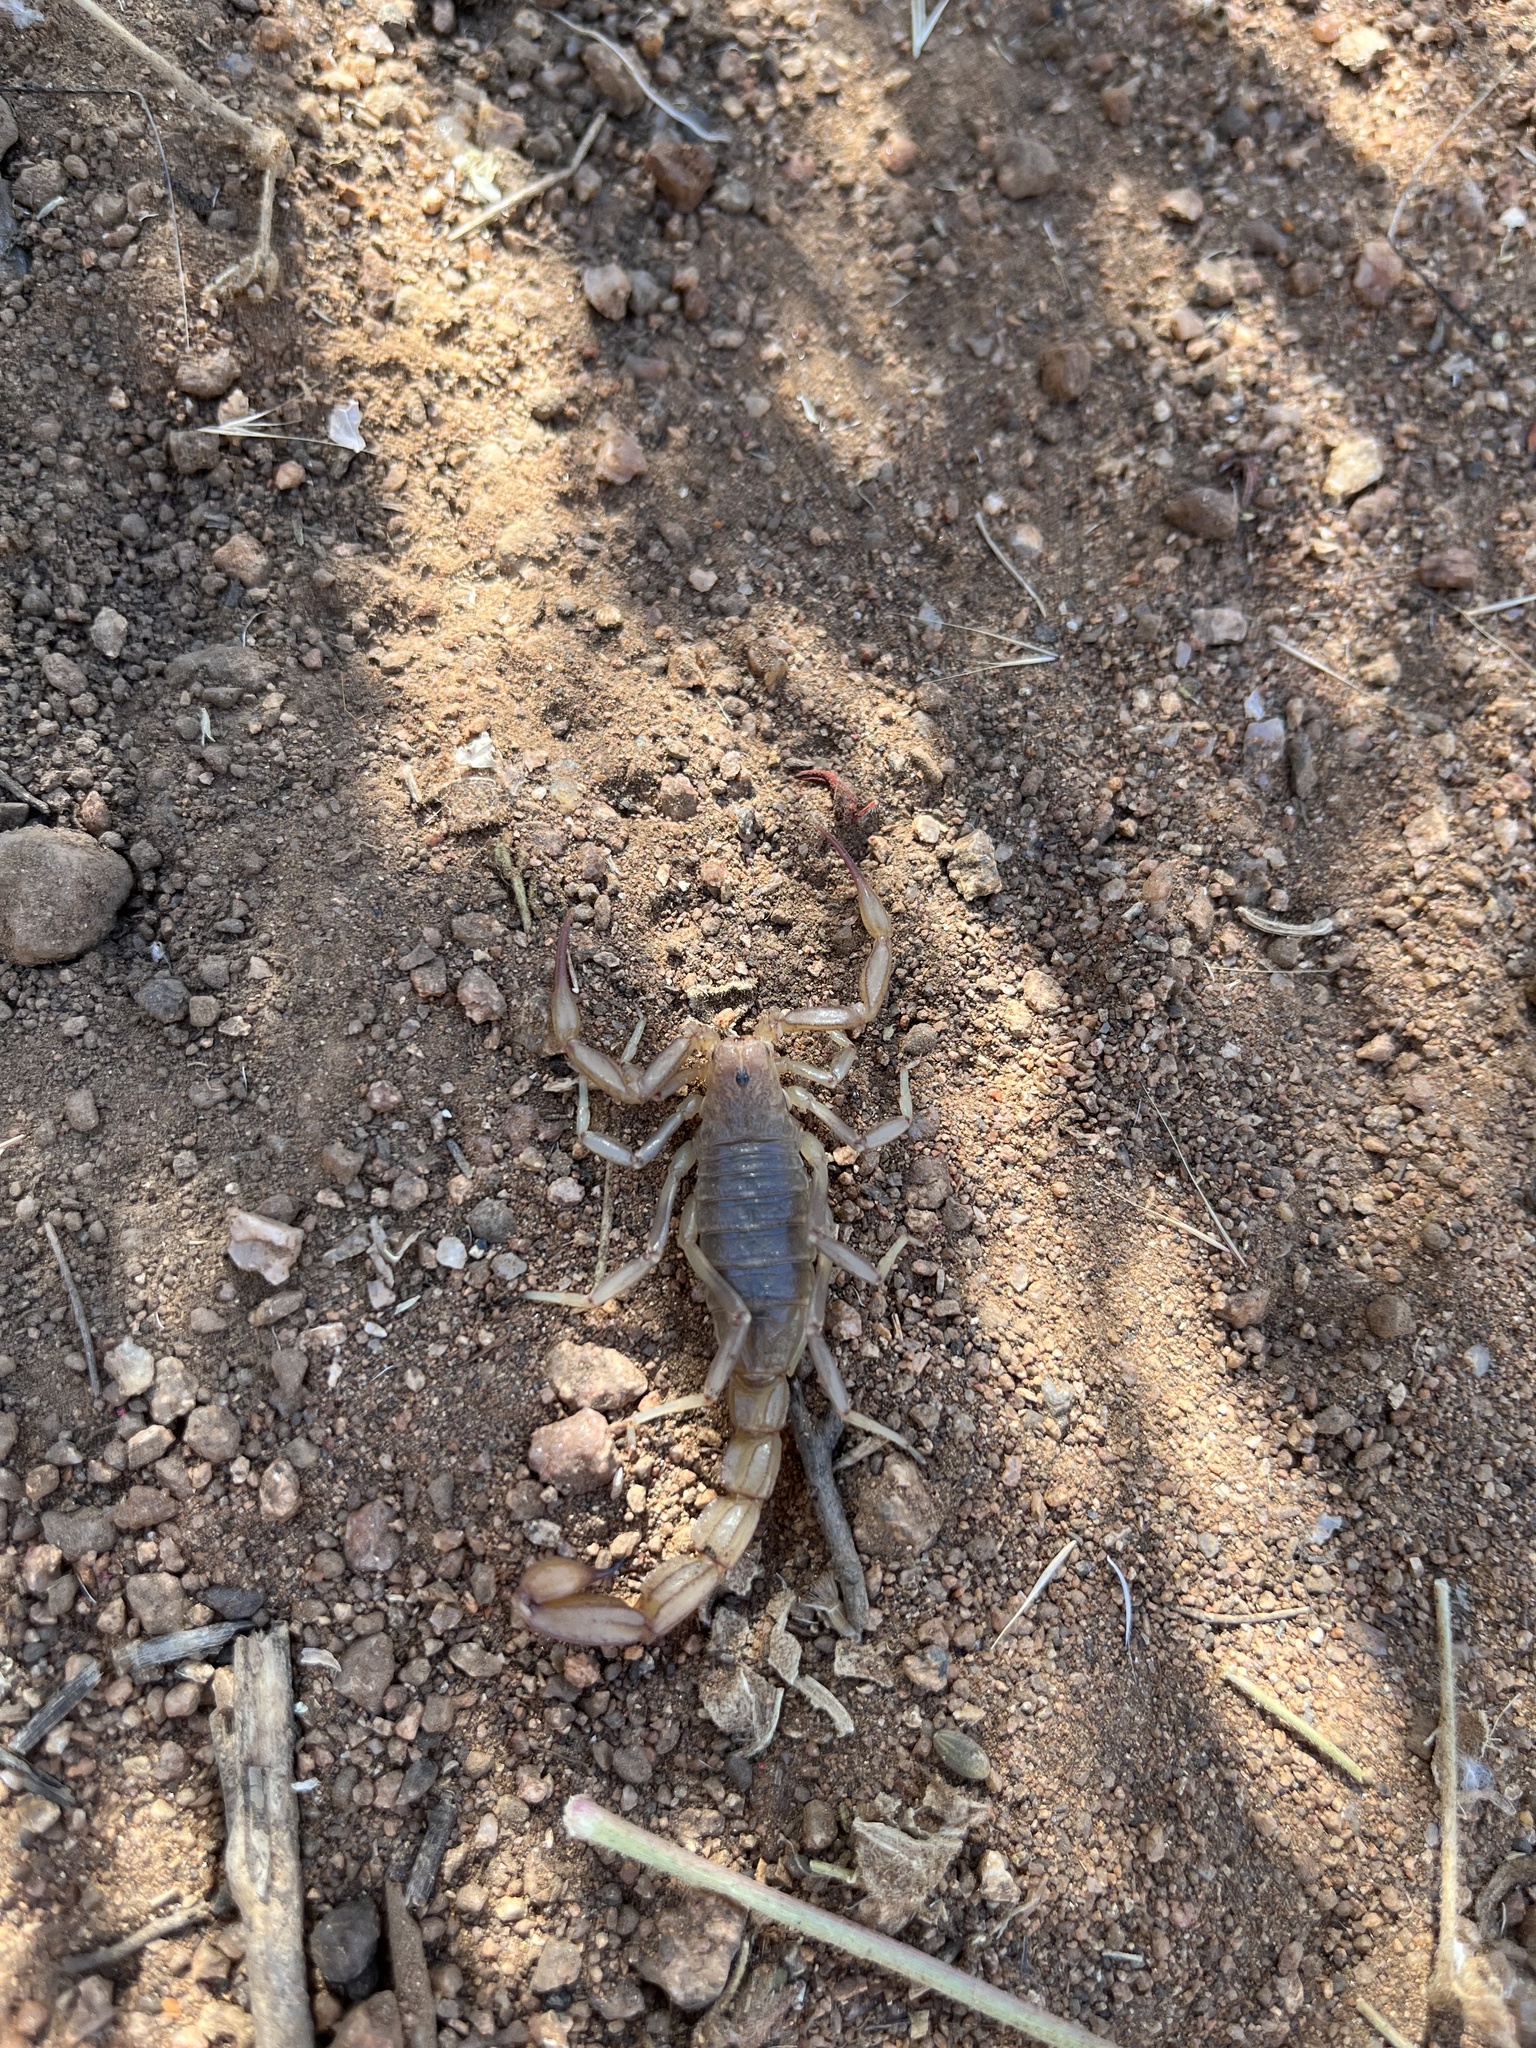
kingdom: Animalia
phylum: Arthropoda
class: Arachnida
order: Scorpiones
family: Vaejovidae
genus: Paravaejovis
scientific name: Paravaejovis puritanus
